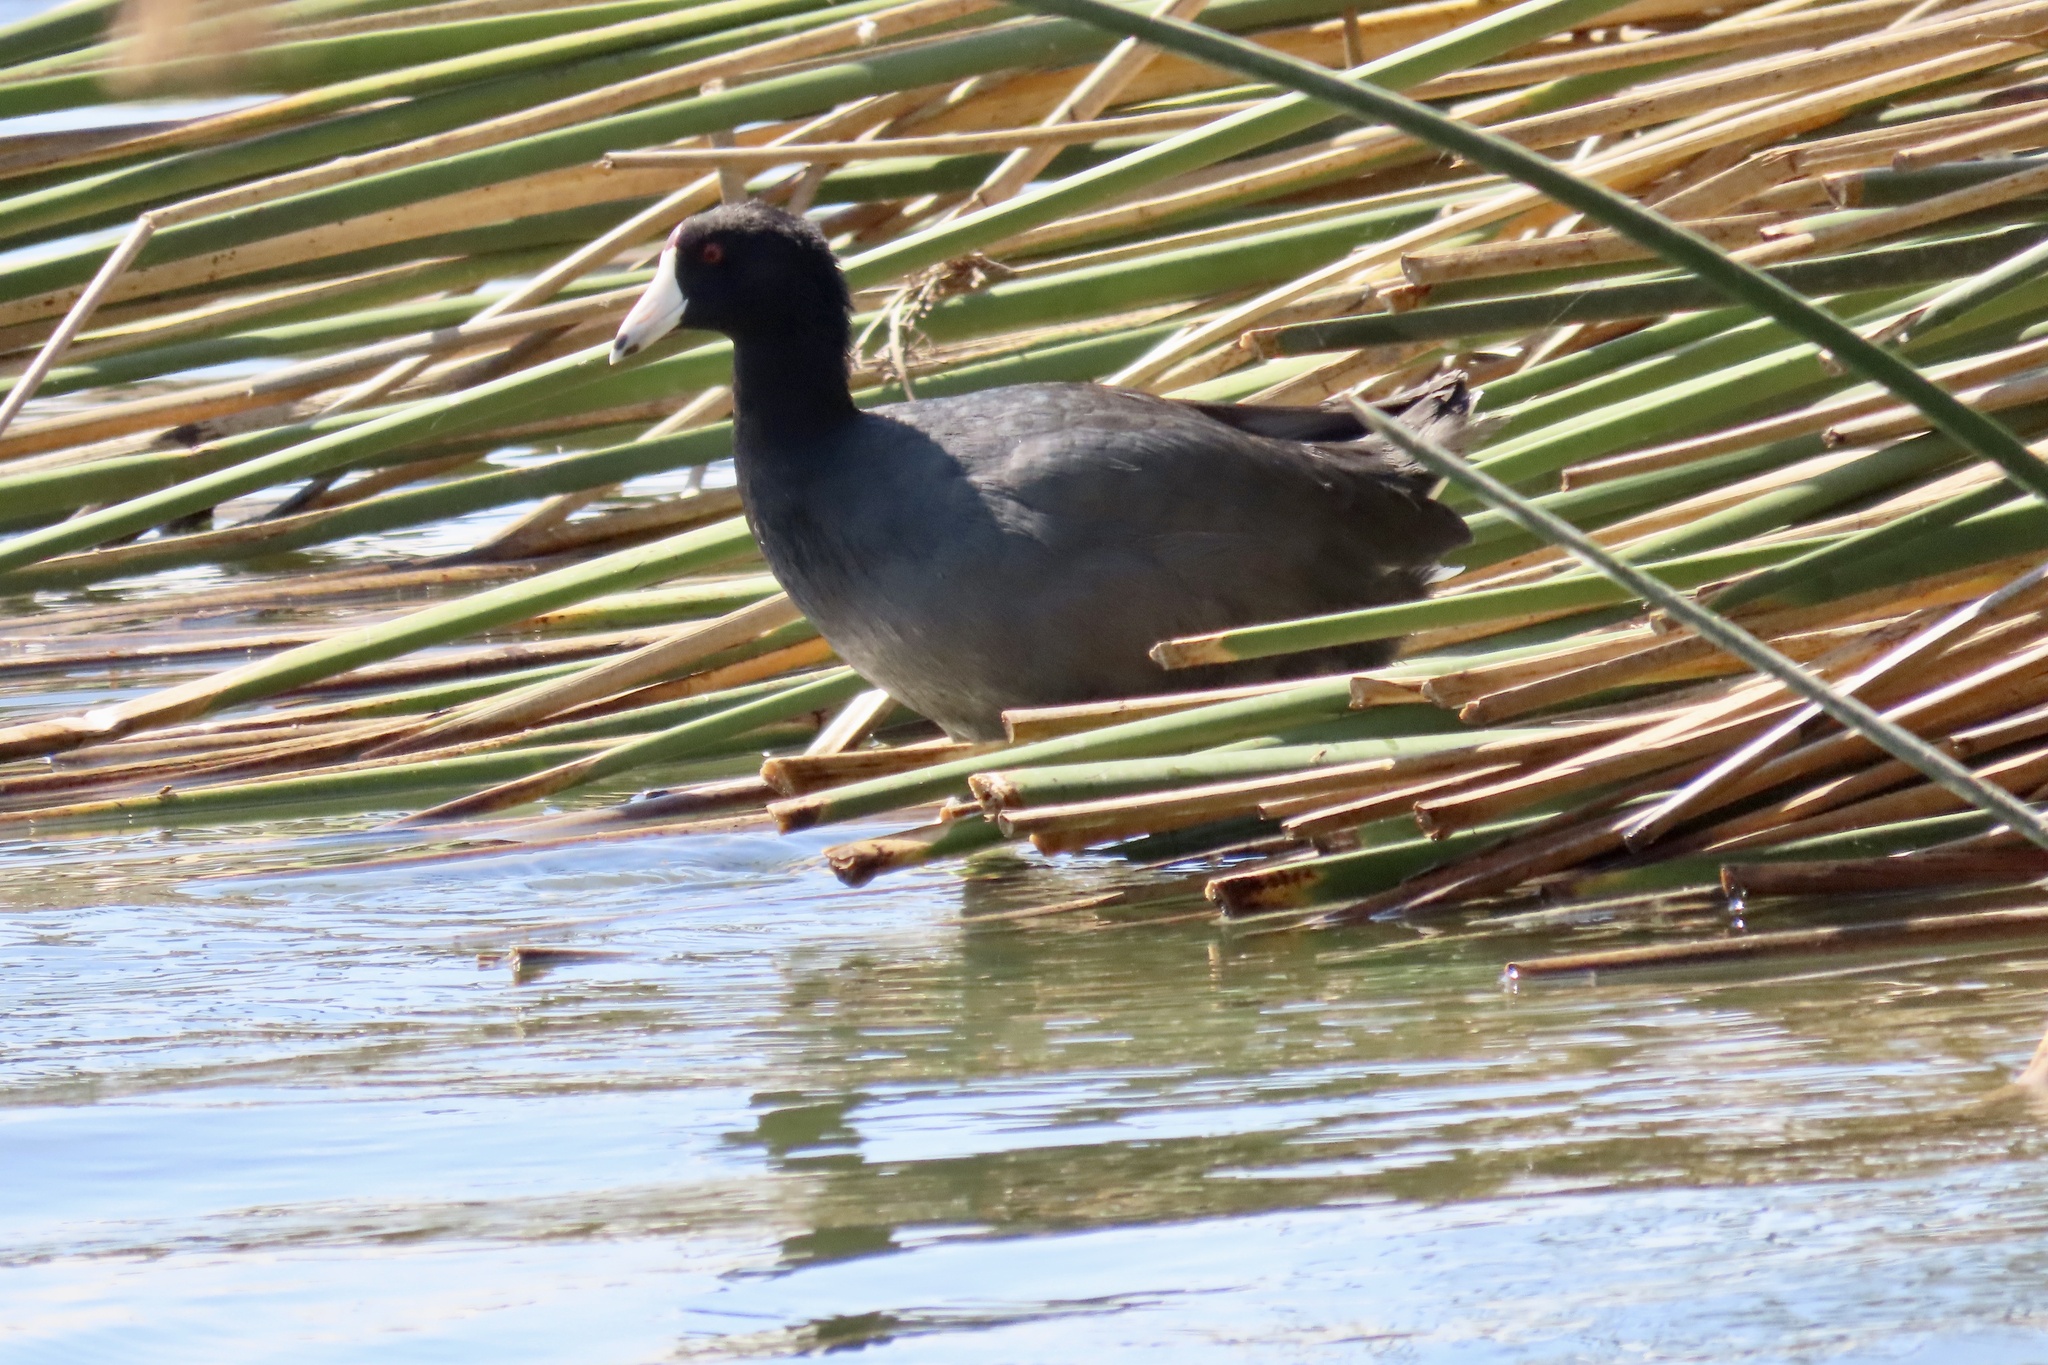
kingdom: Animalia
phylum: Chordata
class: Aves
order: Gruiformes
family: Rallidae
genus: Fulica
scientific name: Fulica americana
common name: American coot
